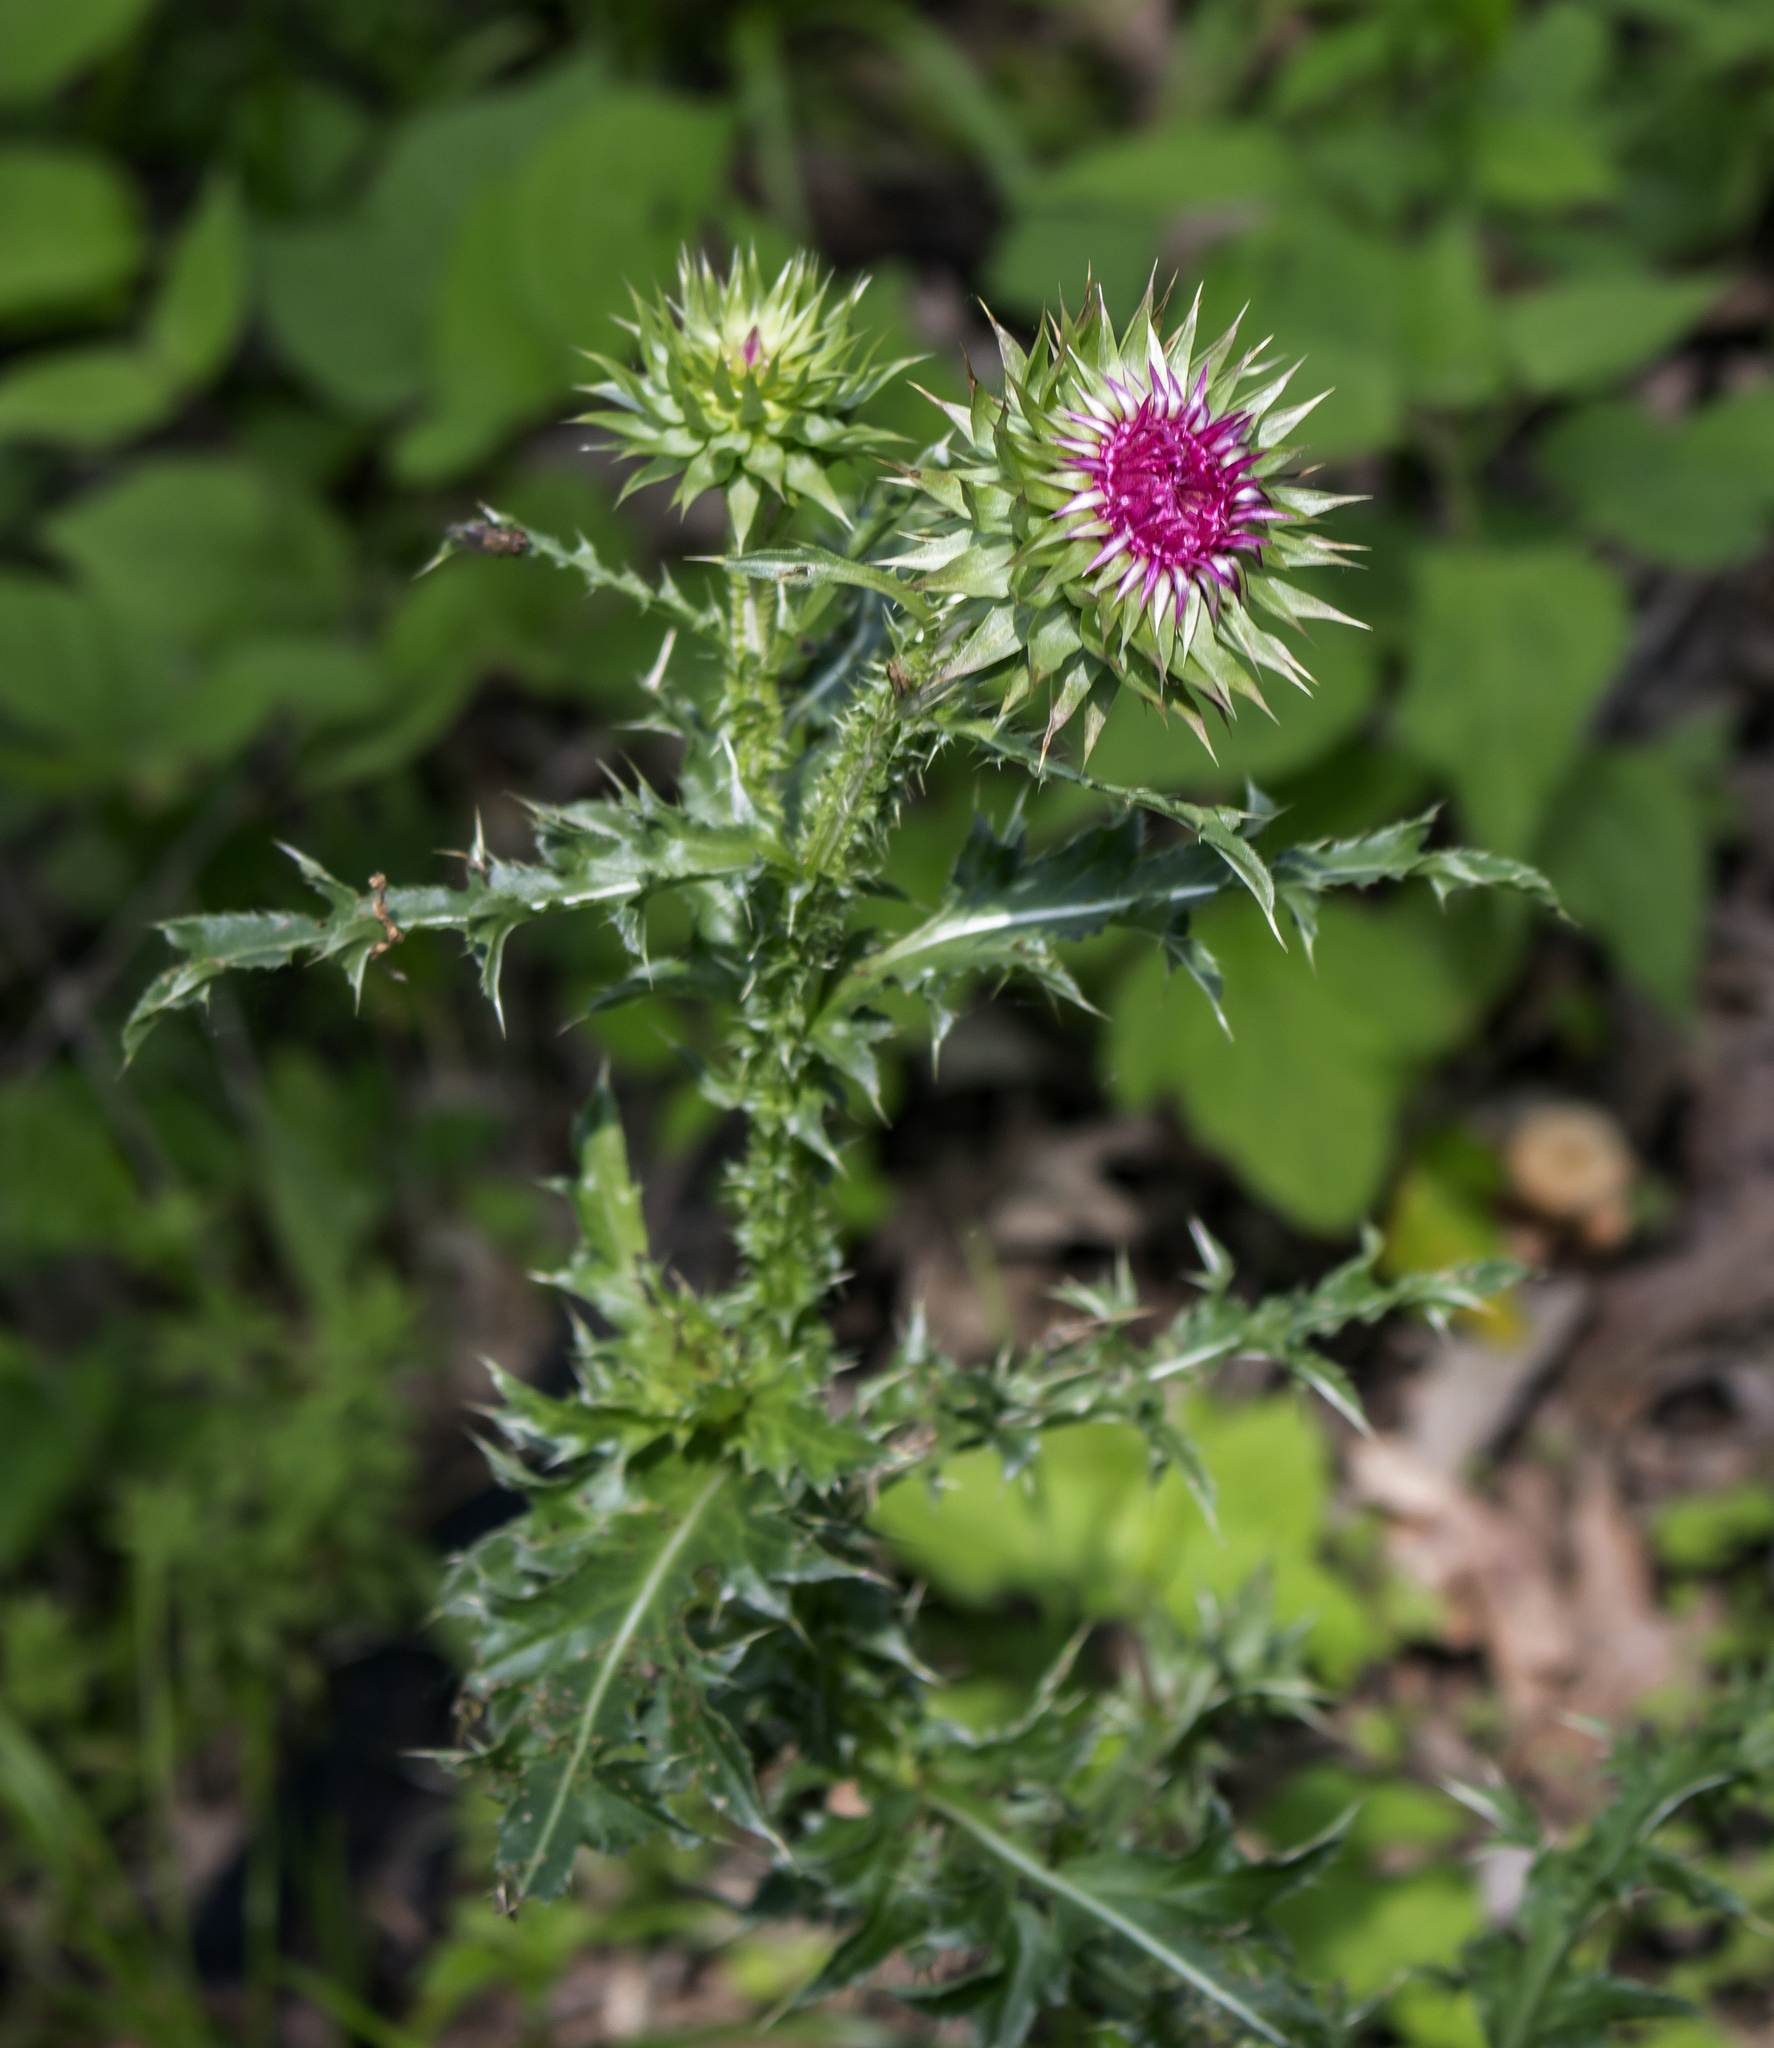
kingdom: Plantae
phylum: Tracheophyta
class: Magnoliopsida
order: Asterales
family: Asteraceae
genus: Carduus
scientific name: Carduus nutans
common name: Musk thistle
